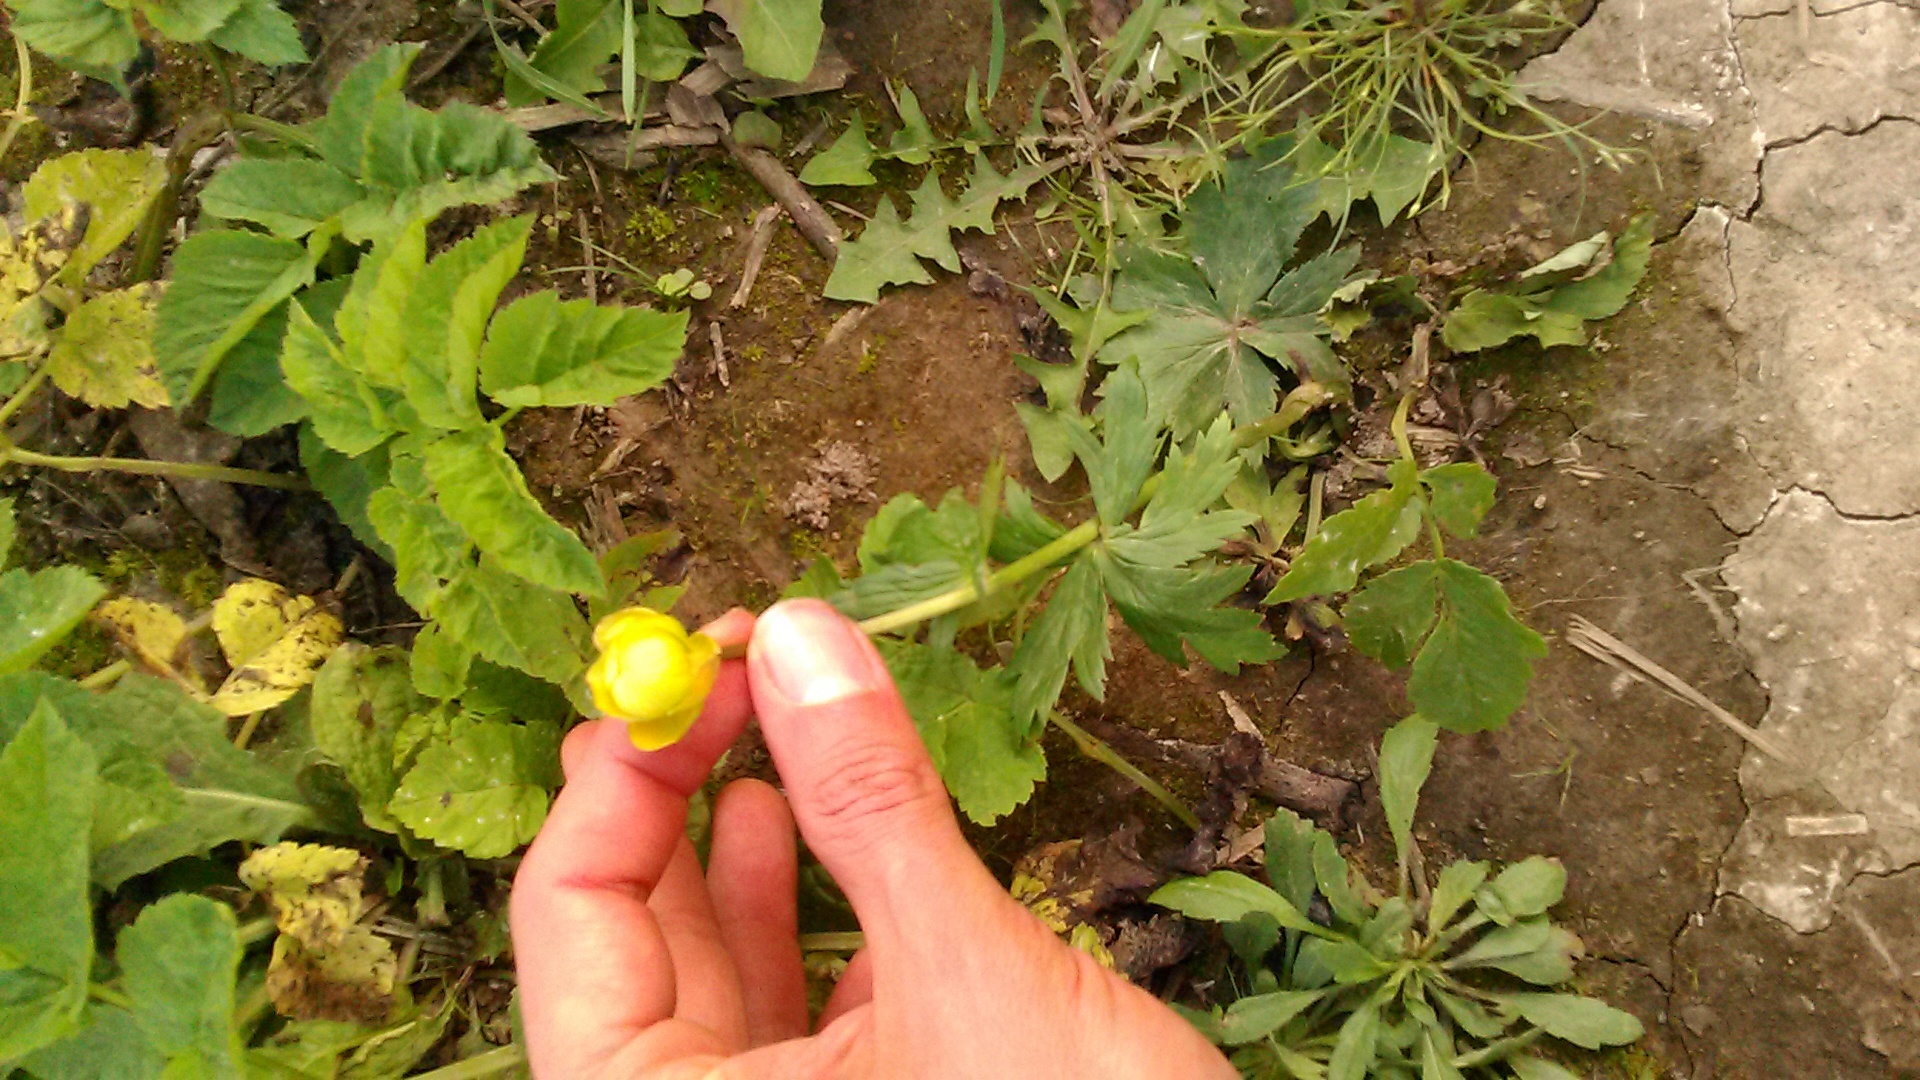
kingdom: Plantae
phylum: Tracheophyta
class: Magnoliopsida
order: Ranunculales
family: Ranunculaceae
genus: Trollius
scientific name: Trollius europaeus
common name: European globeflower
